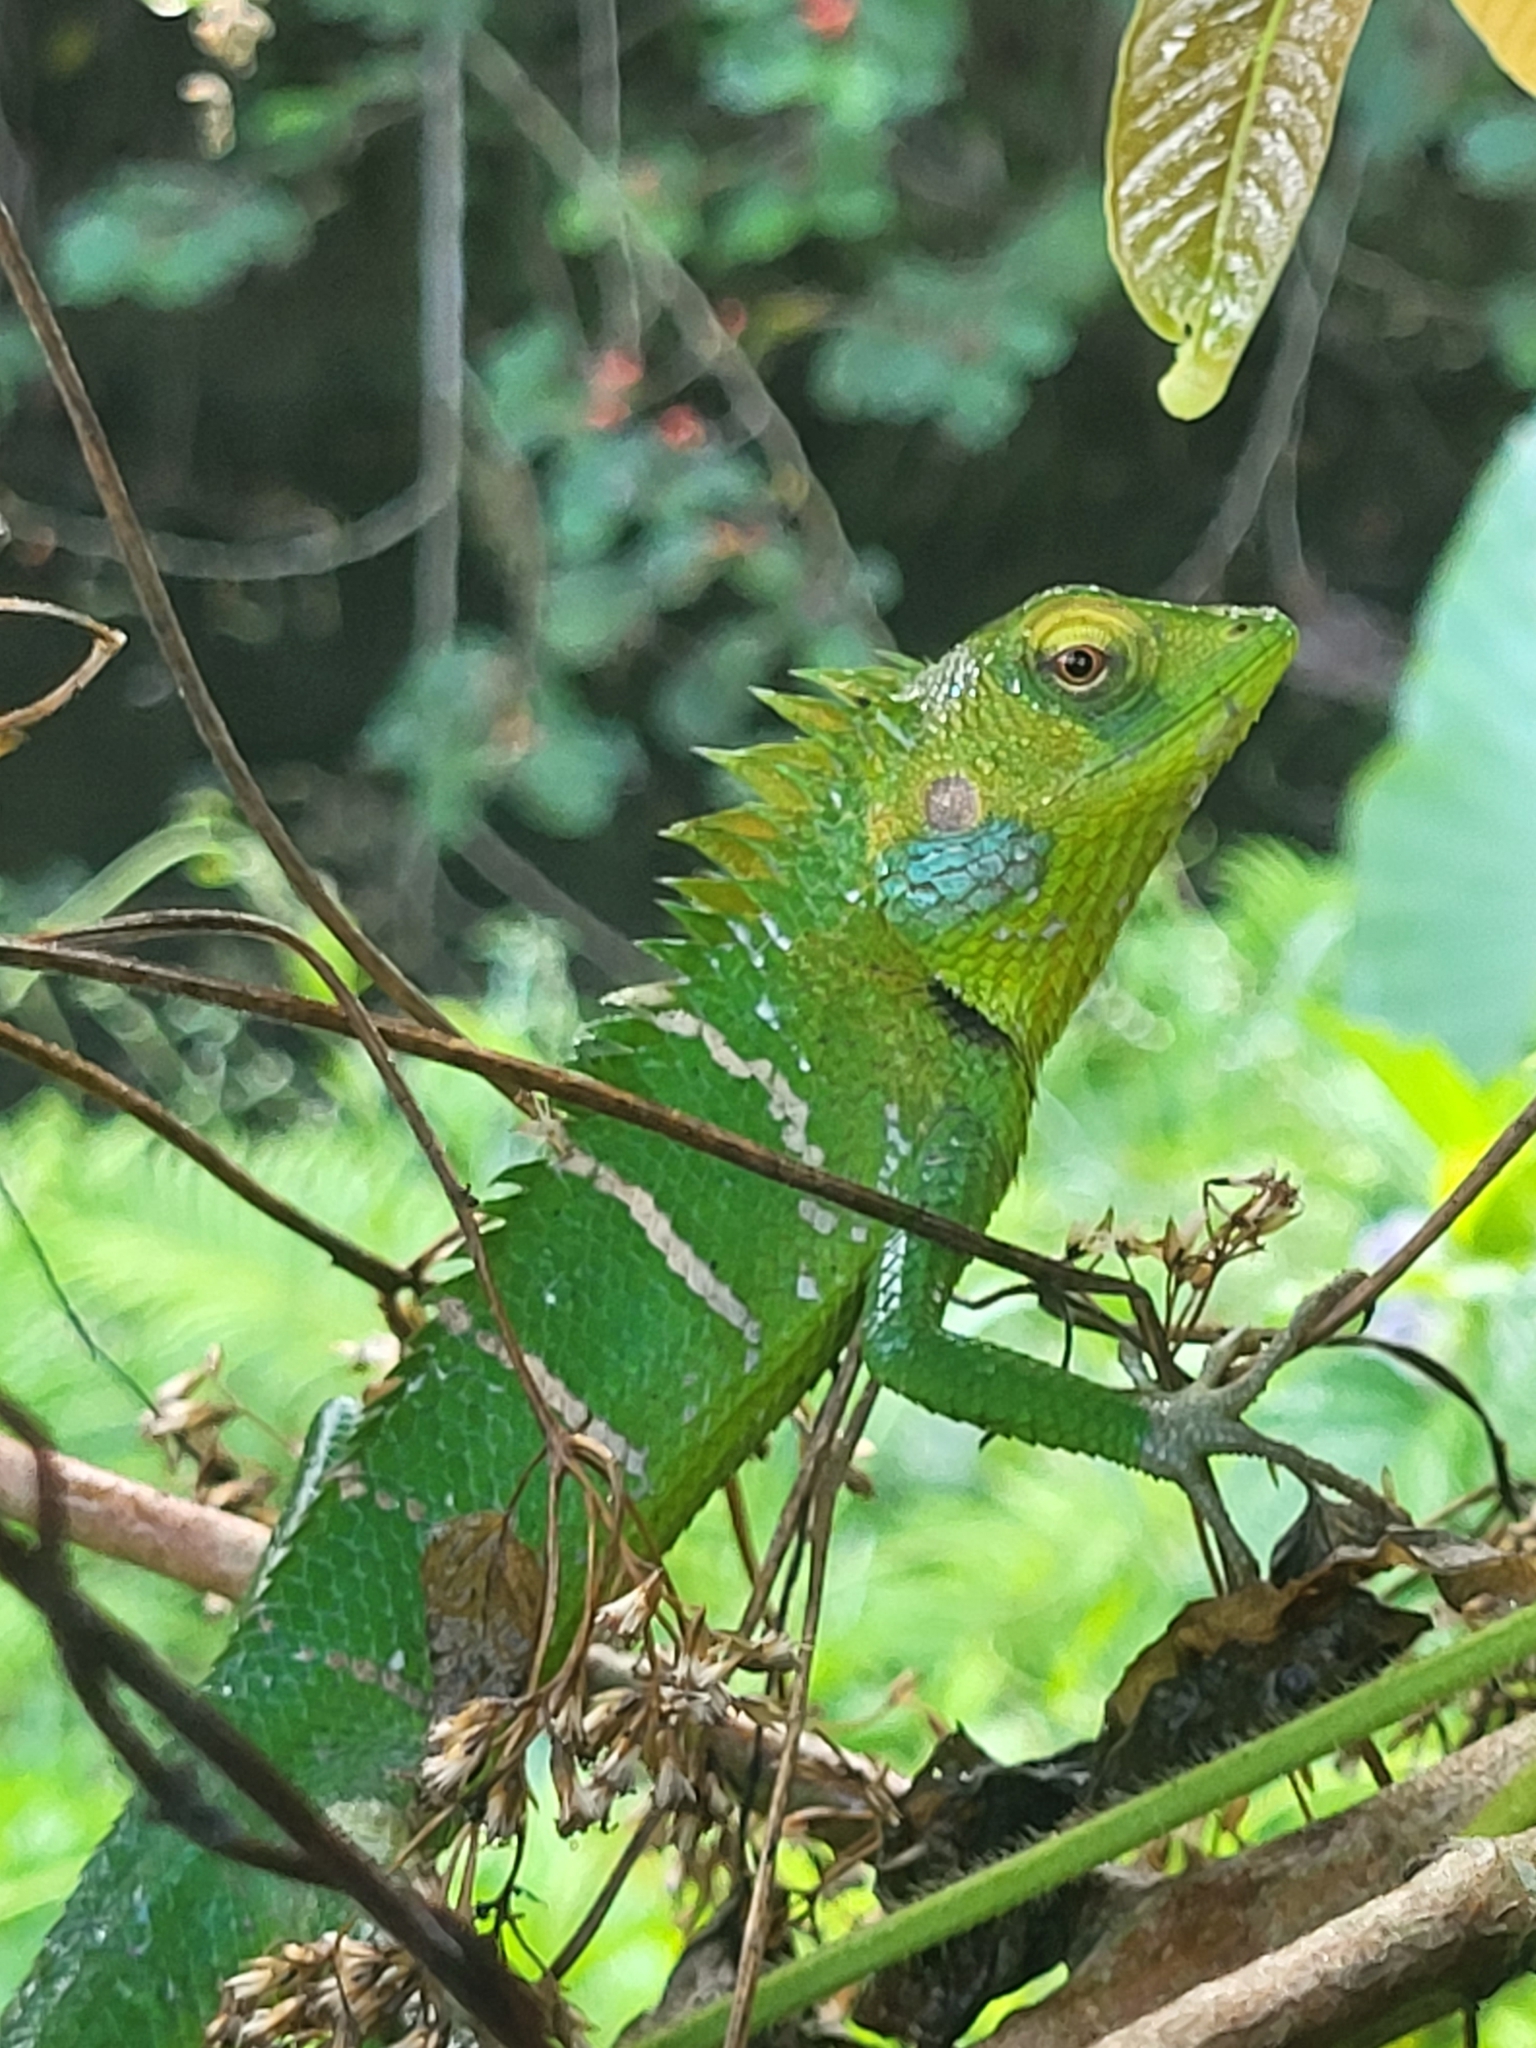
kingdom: Animalia
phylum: Chordata
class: Squamata
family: Agamidae
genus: Calotes
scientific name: Calotes calotes
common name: Common green forest lizard
